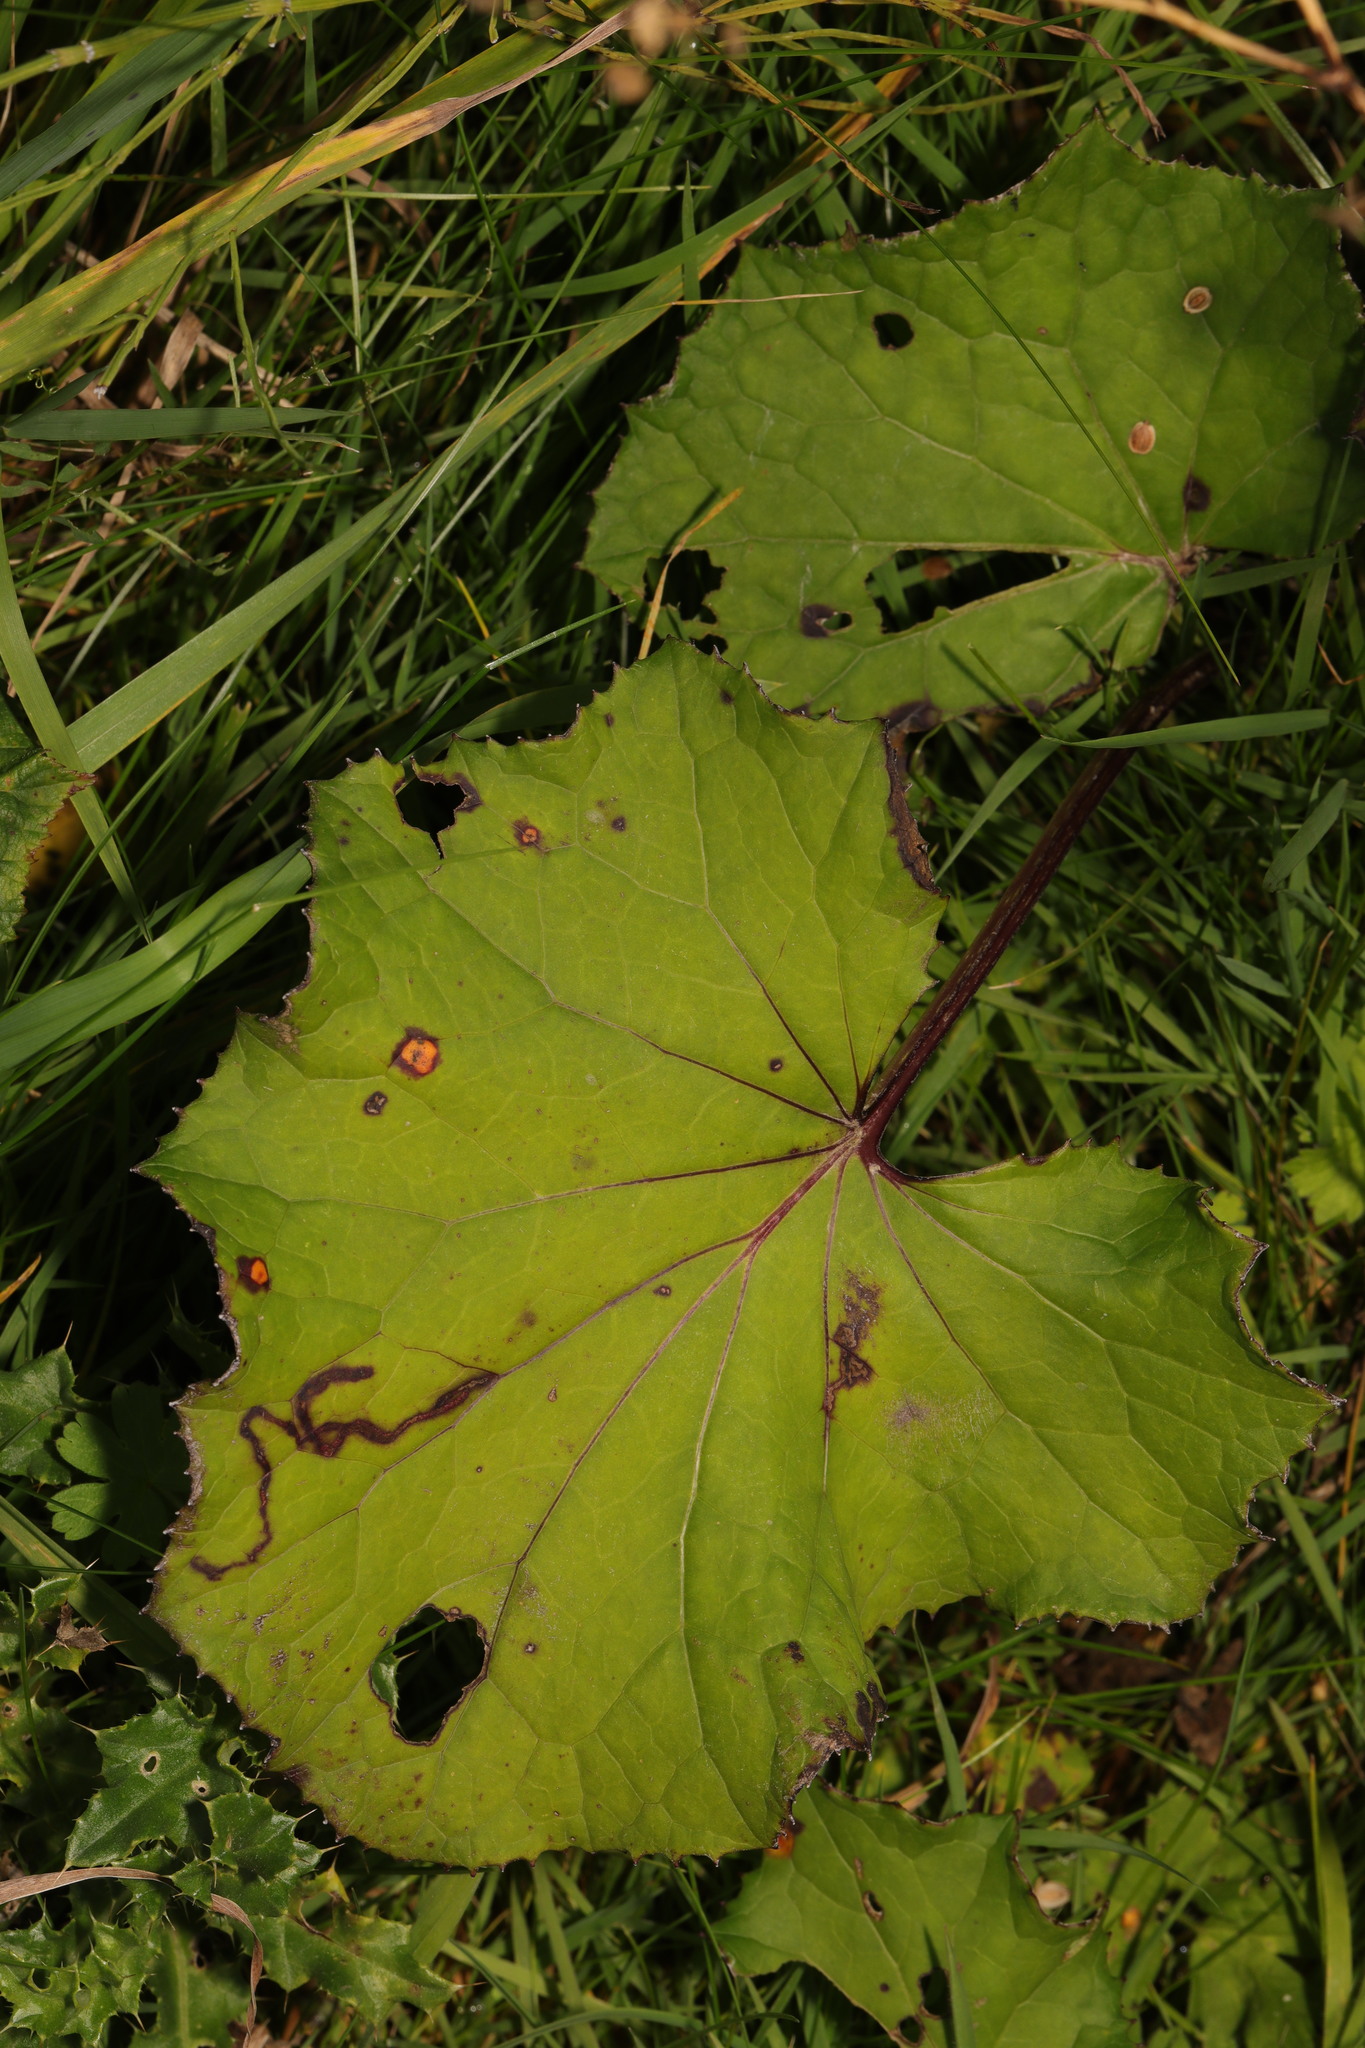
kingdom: Plantae
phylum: Tracheophyta
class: Magnoliopsida
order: Asterales
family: Asteraceae
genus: Tussilago
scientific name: Tussilago farfara
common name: Coltsfoot
